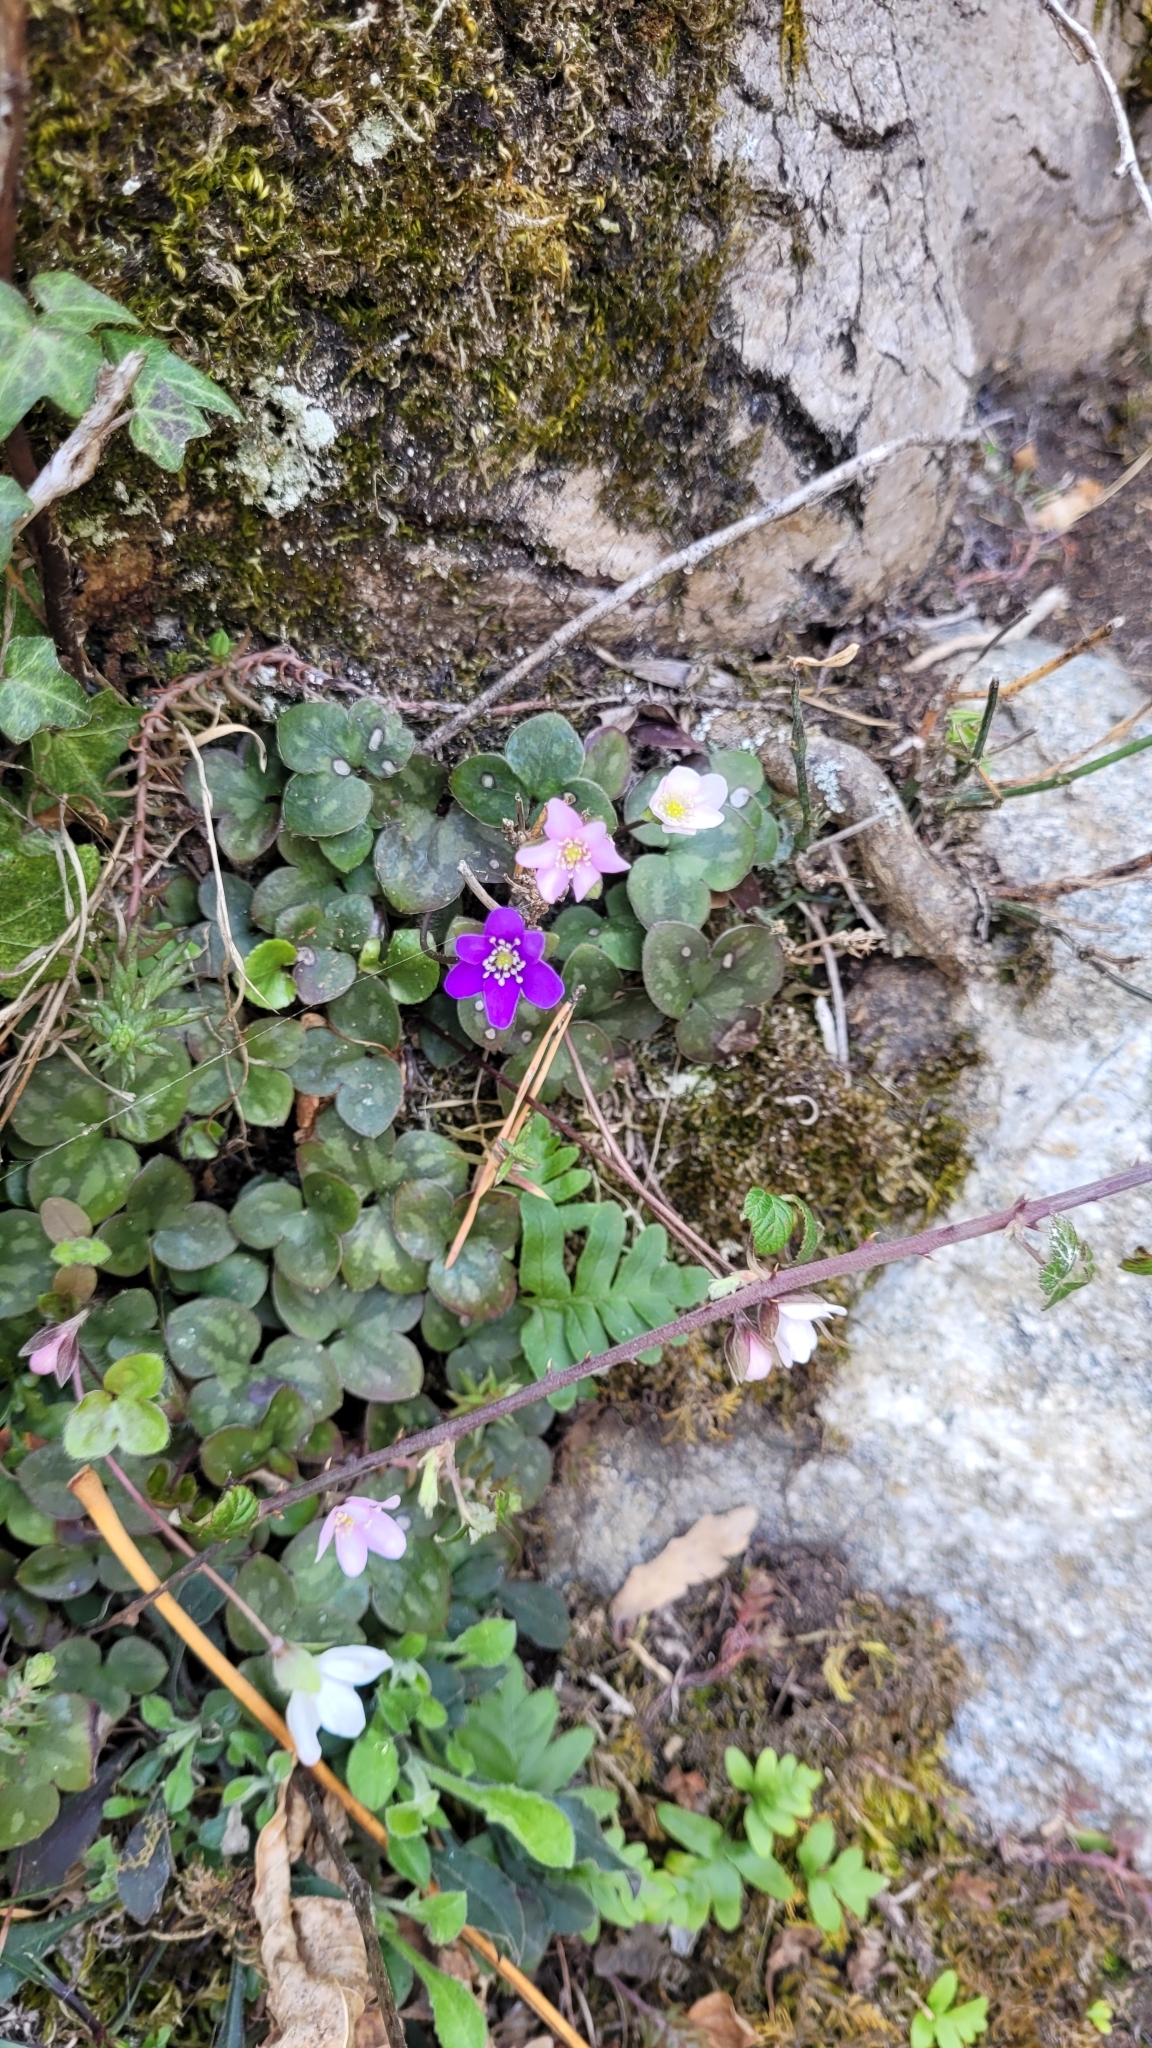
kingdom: Plantae
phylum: Tracheophyta
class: Magnoliopsida
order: Ranunculales
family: Ranunculaceae
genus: Hepatica
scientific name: Hepatica nobilis
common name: Liverleaf
